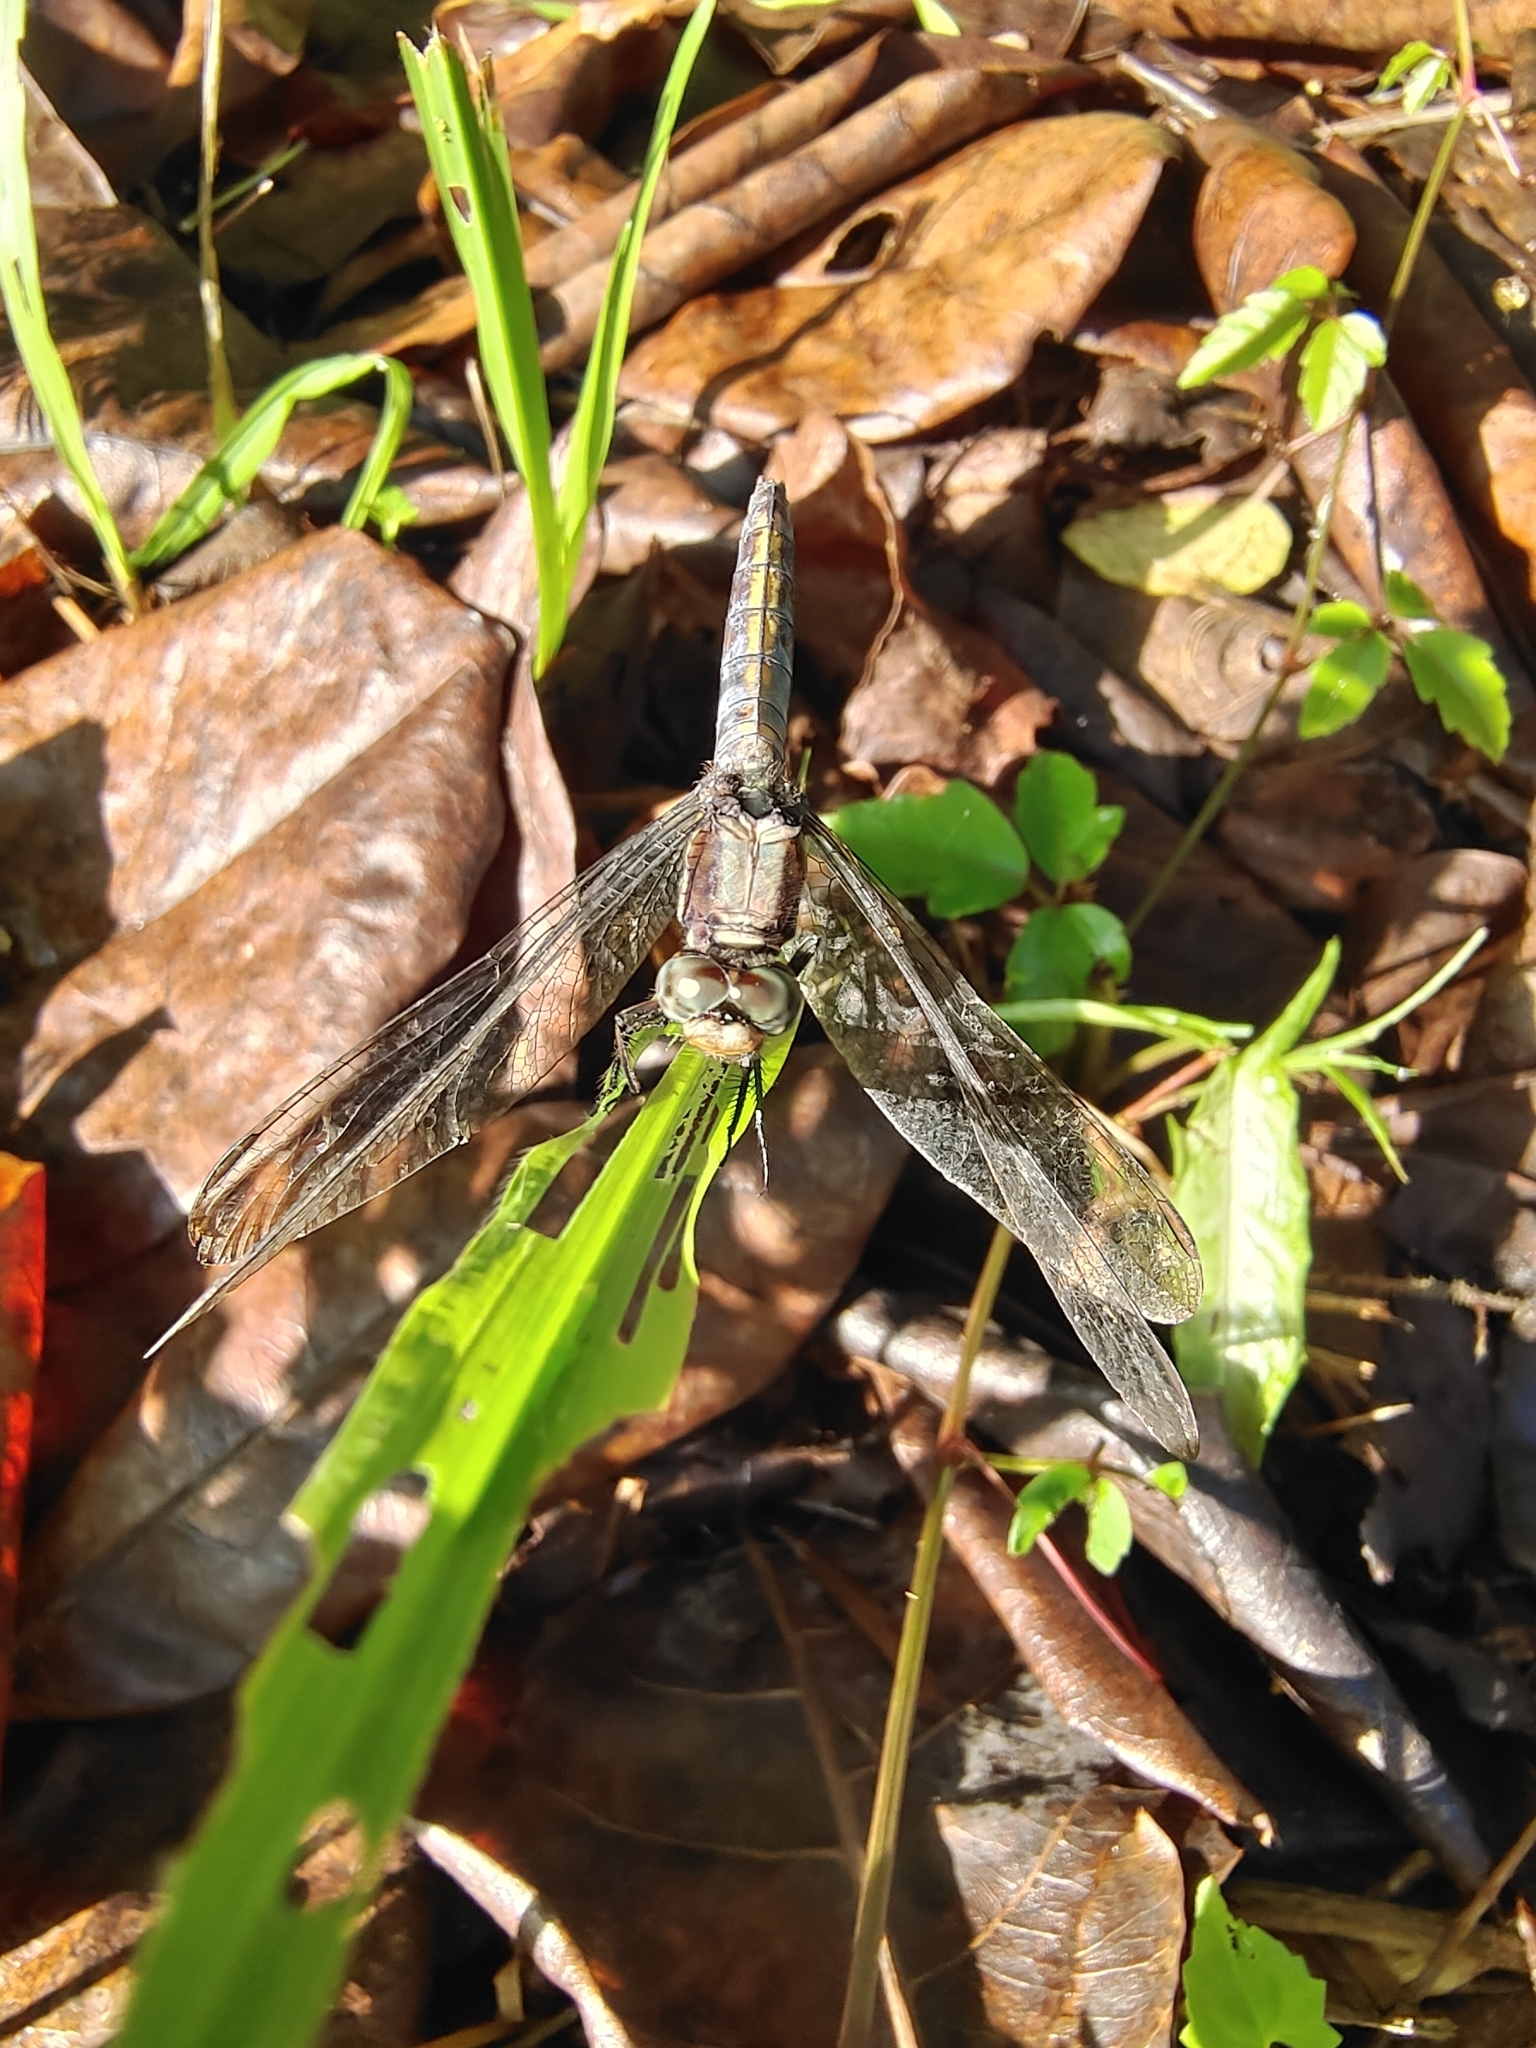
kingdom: Animalia
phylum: Arthropoda
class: Insecta
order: Odonata
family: Libellulidae
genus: Orthetrum
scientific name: Orthetrum glaucum
